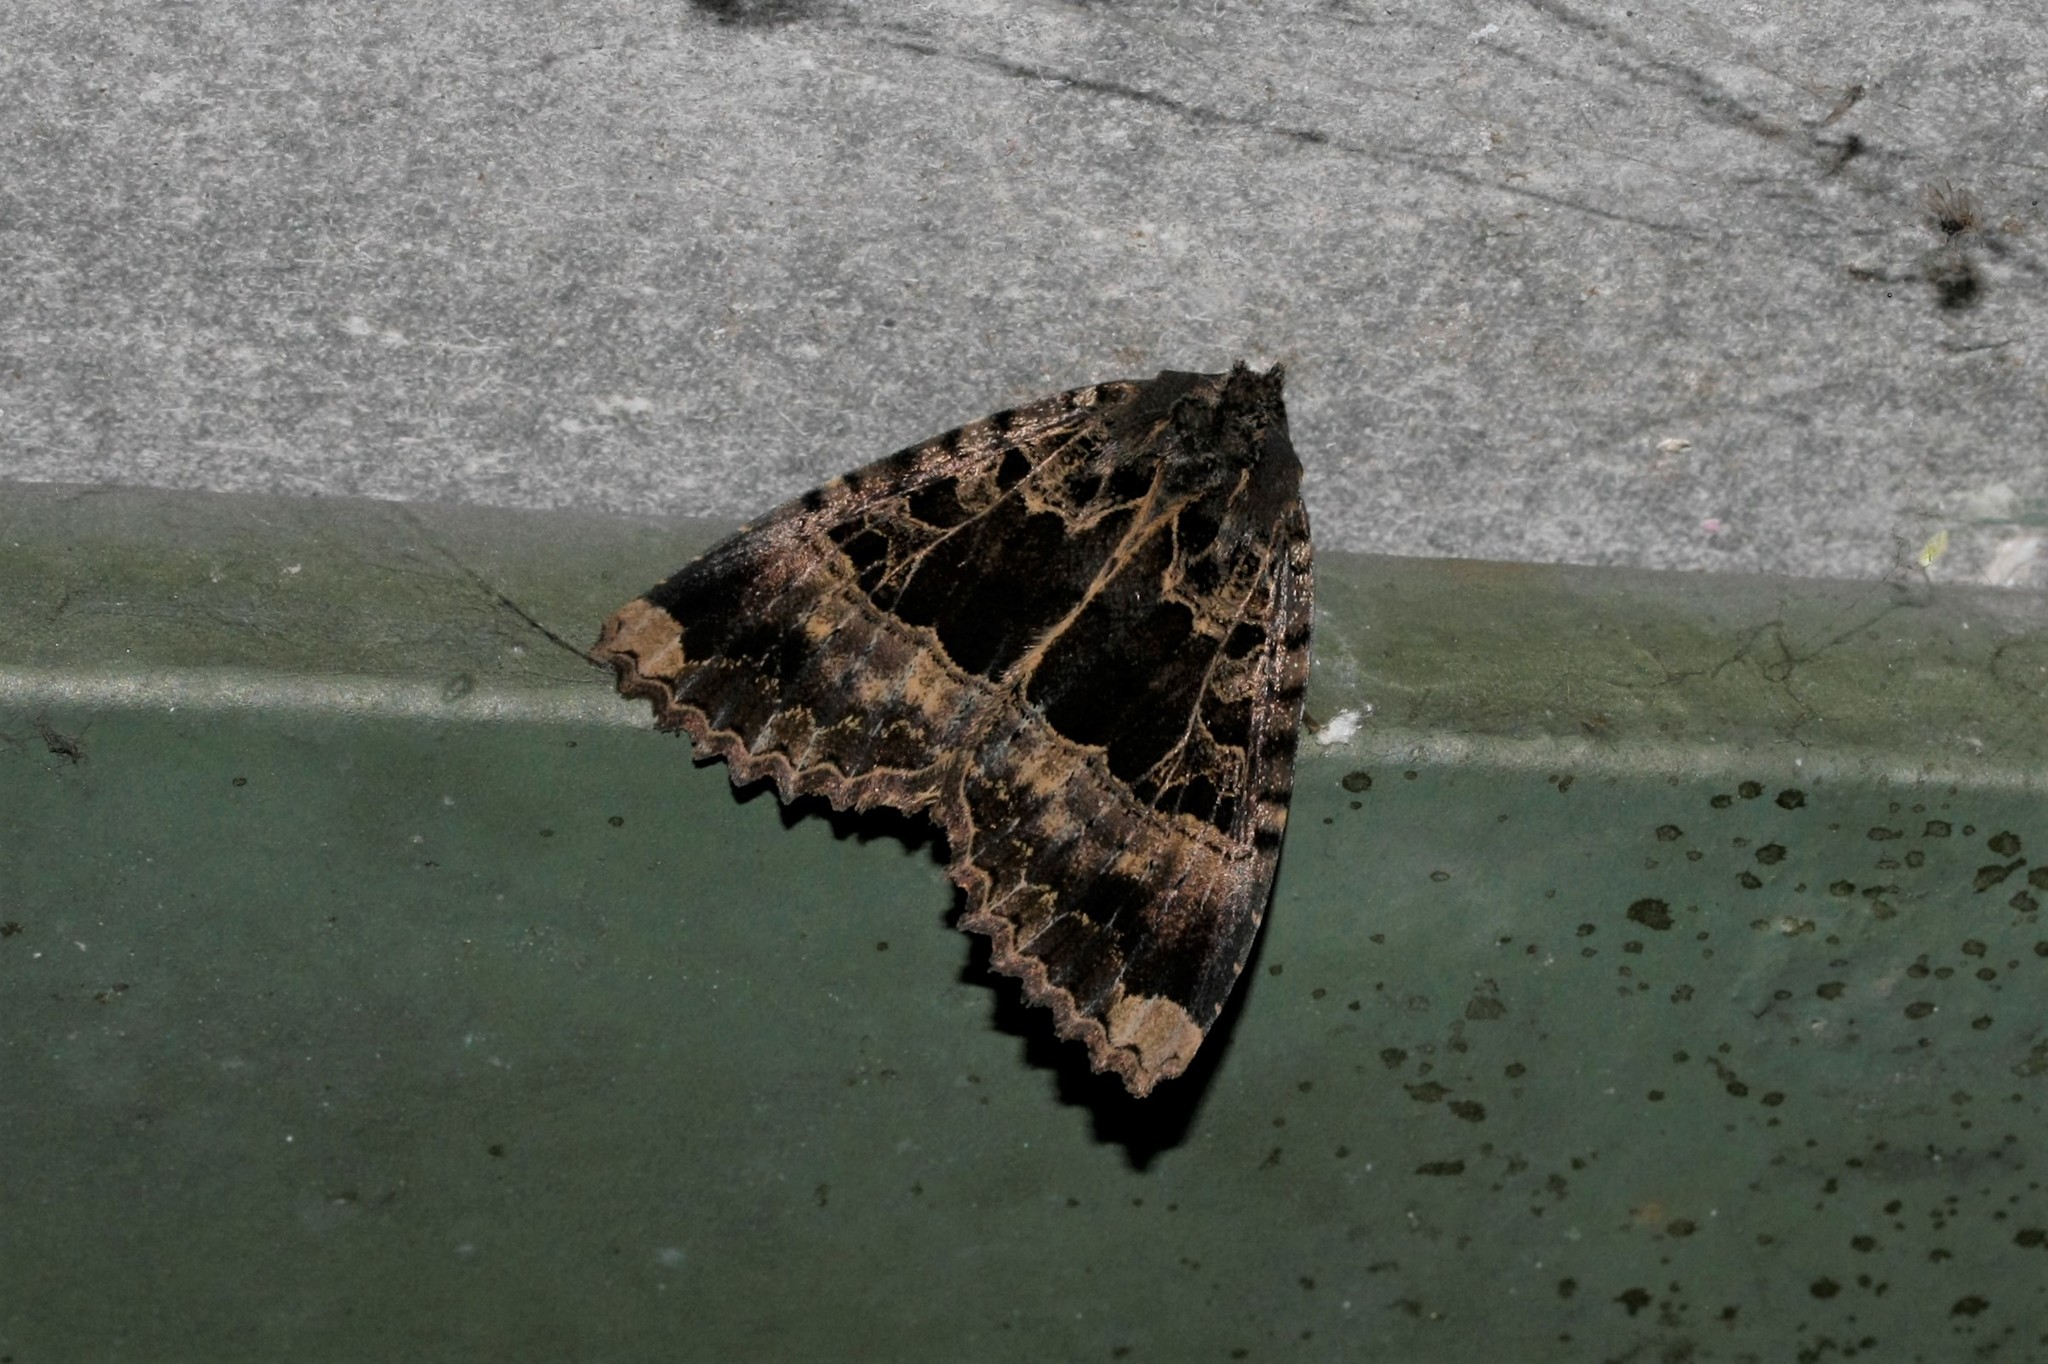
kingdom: Animalia
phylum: Arthropoda
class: Insecta
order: Lepidoptera
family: Noctuidae
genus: Mormo
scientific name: Mormo maura
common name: Old lady
